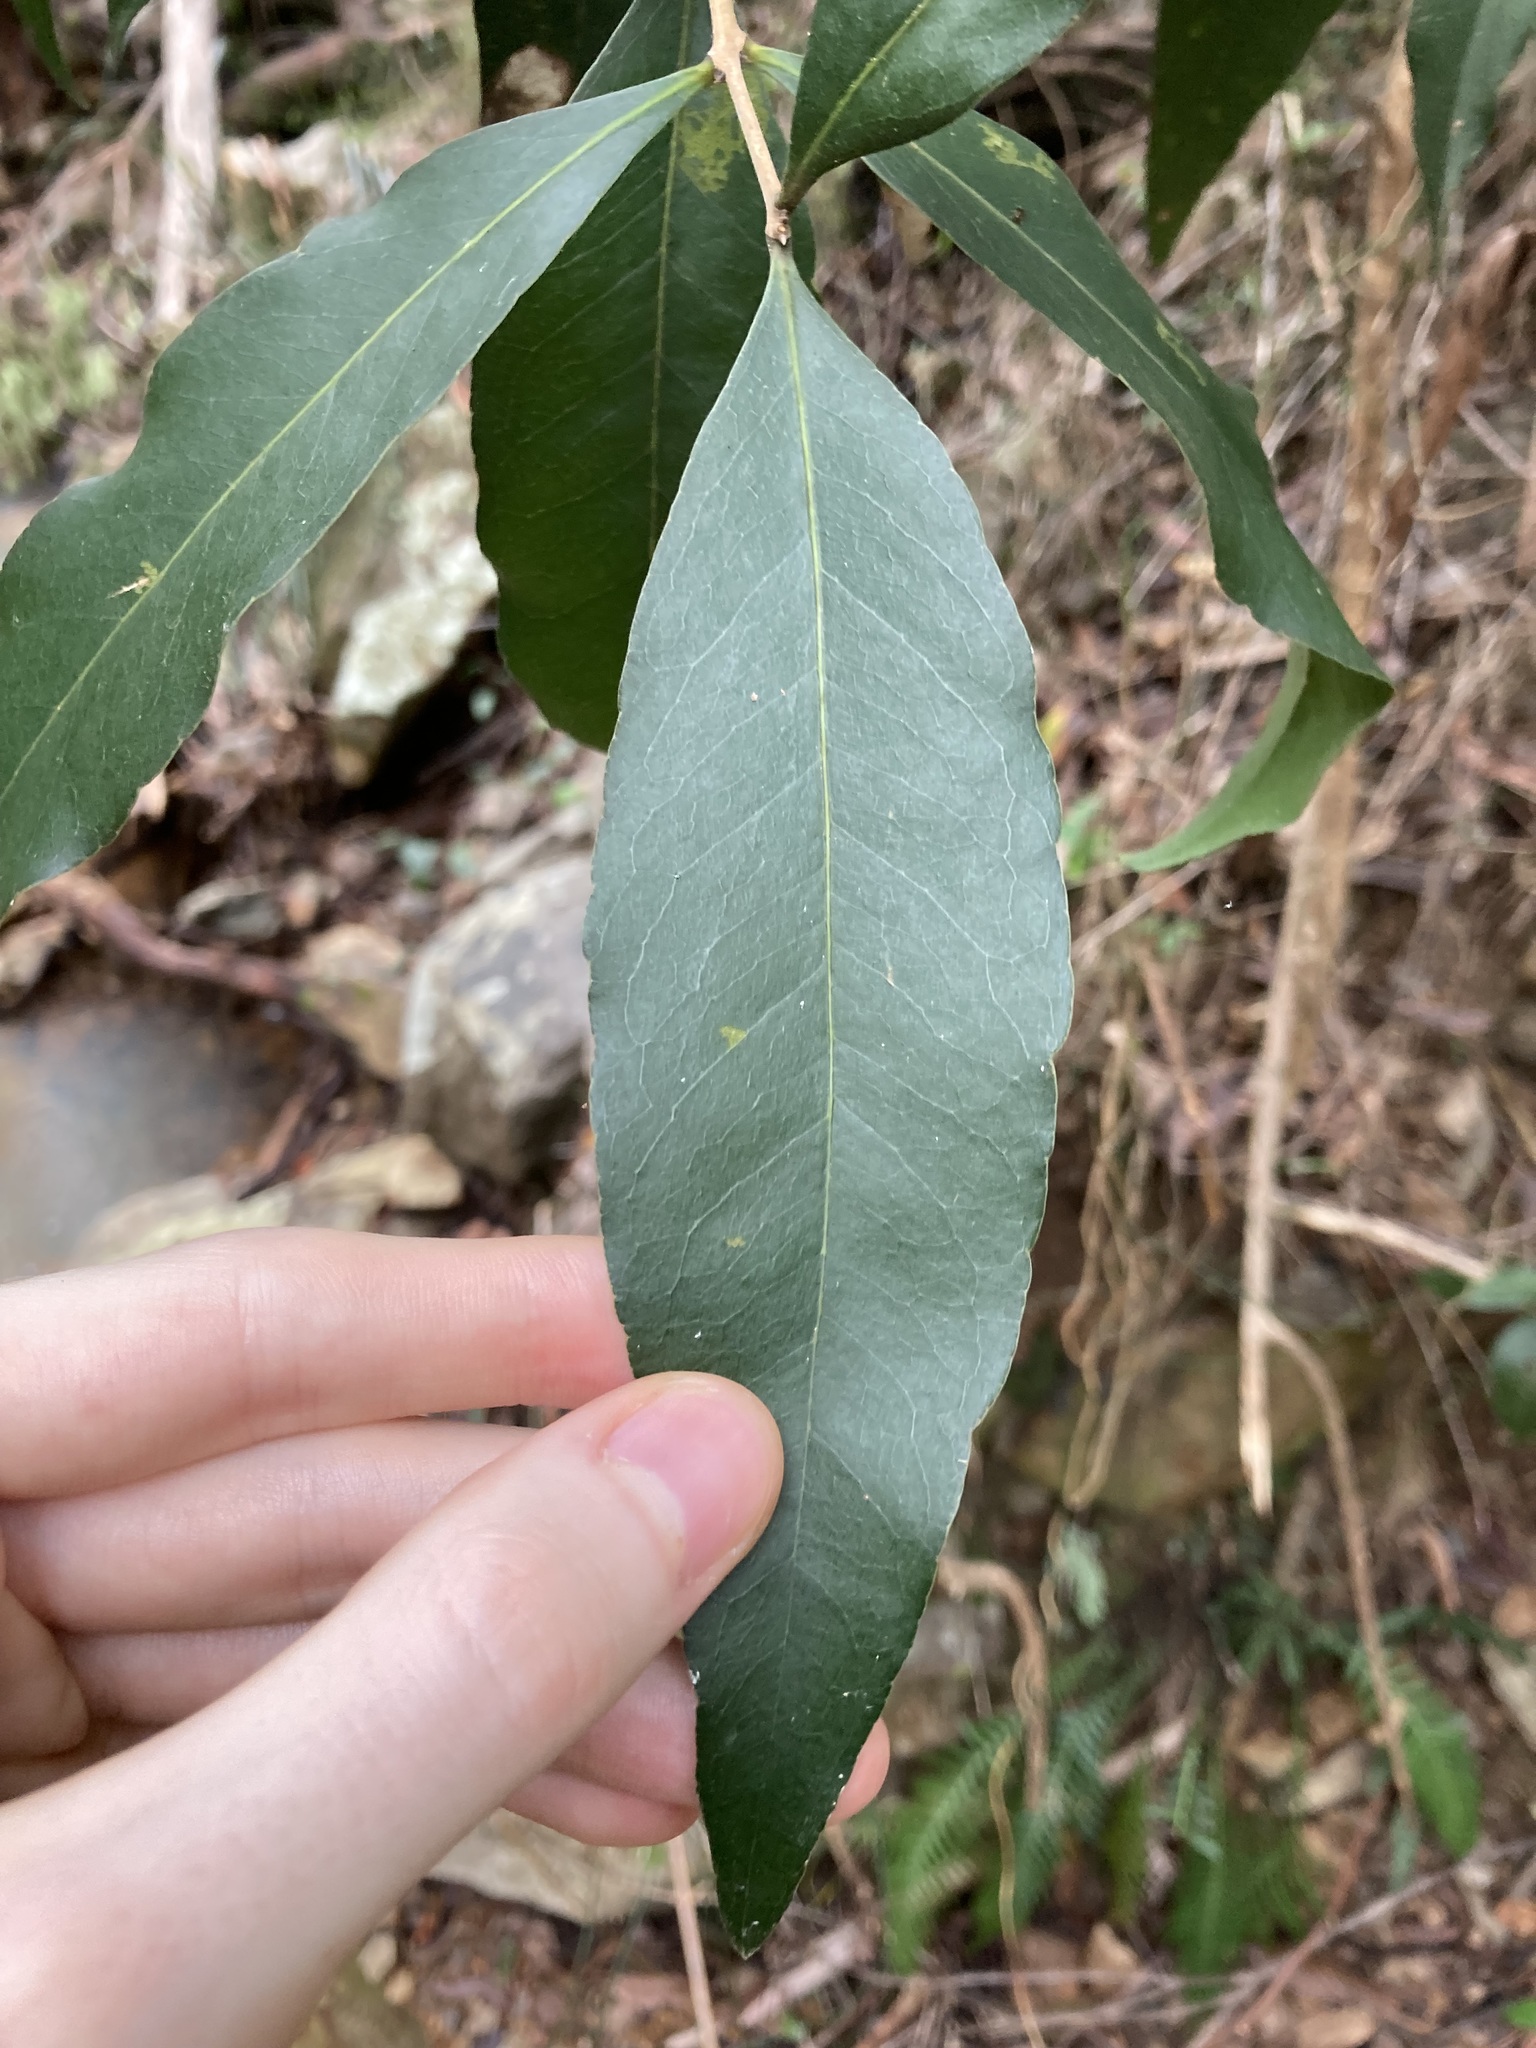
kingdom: Plantae
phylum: Tracheophyta
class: Magnoliopsida
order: Lamiales
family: Oleaceae
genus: Notelaea
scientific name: Notelaea longifolia
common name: Large mock olive
